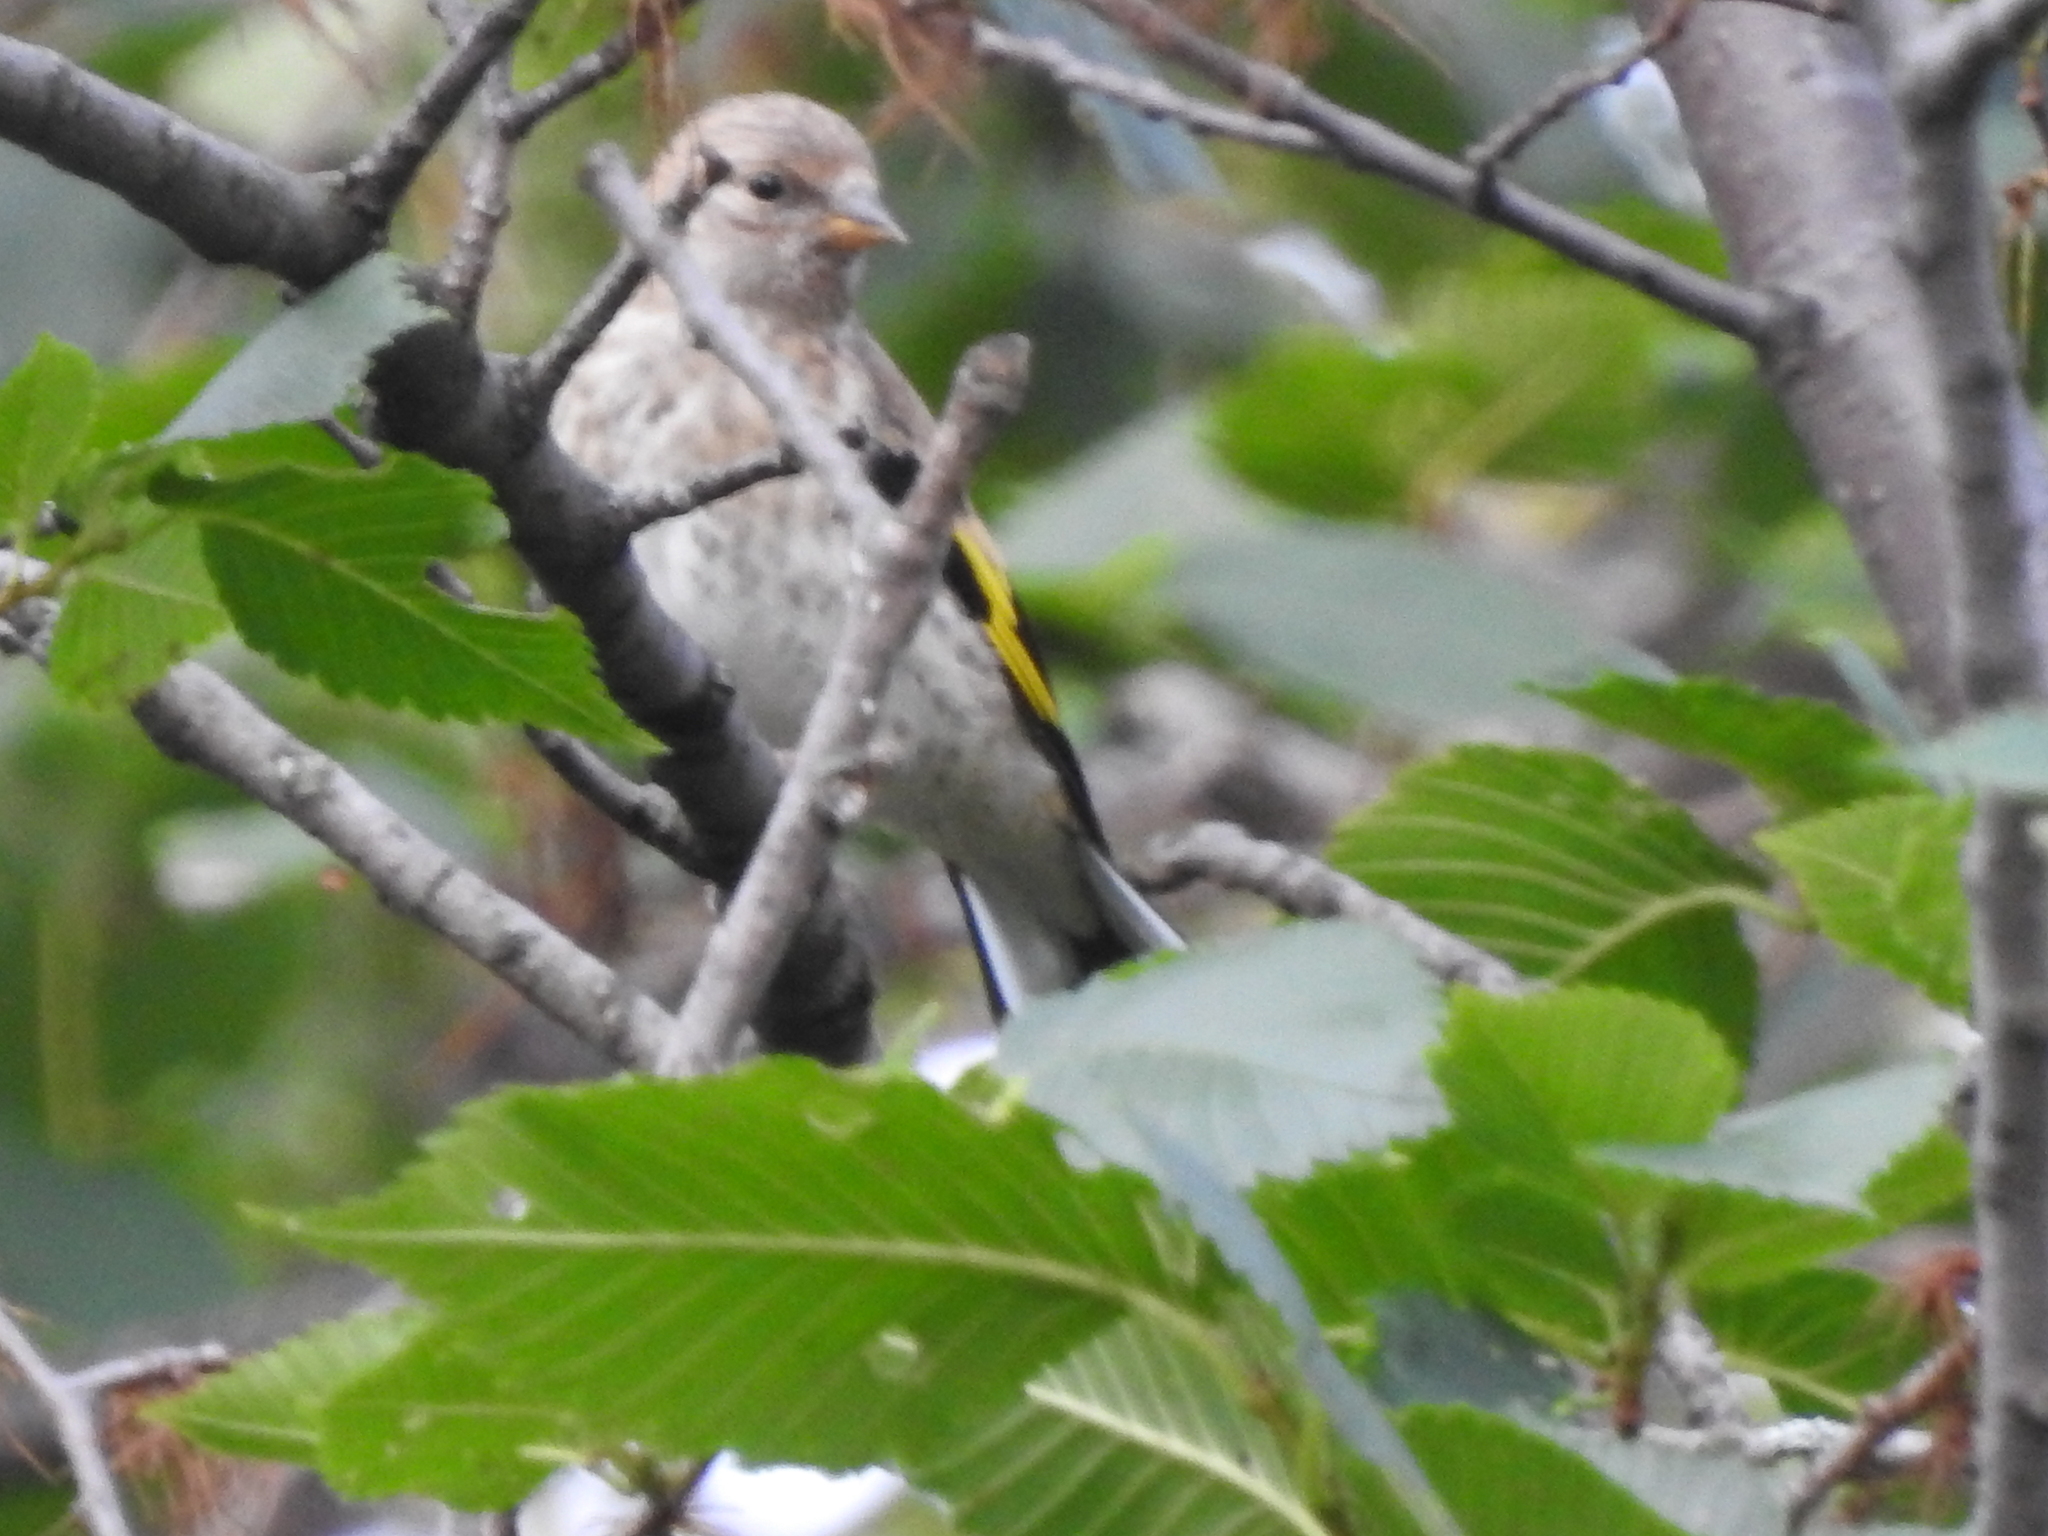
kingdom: Animalia
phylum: Chordata
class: Aves
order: Passeriformes
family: Fringillidae
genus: Carduelis
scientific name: Carduelis carduelis
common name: European goldfinch
